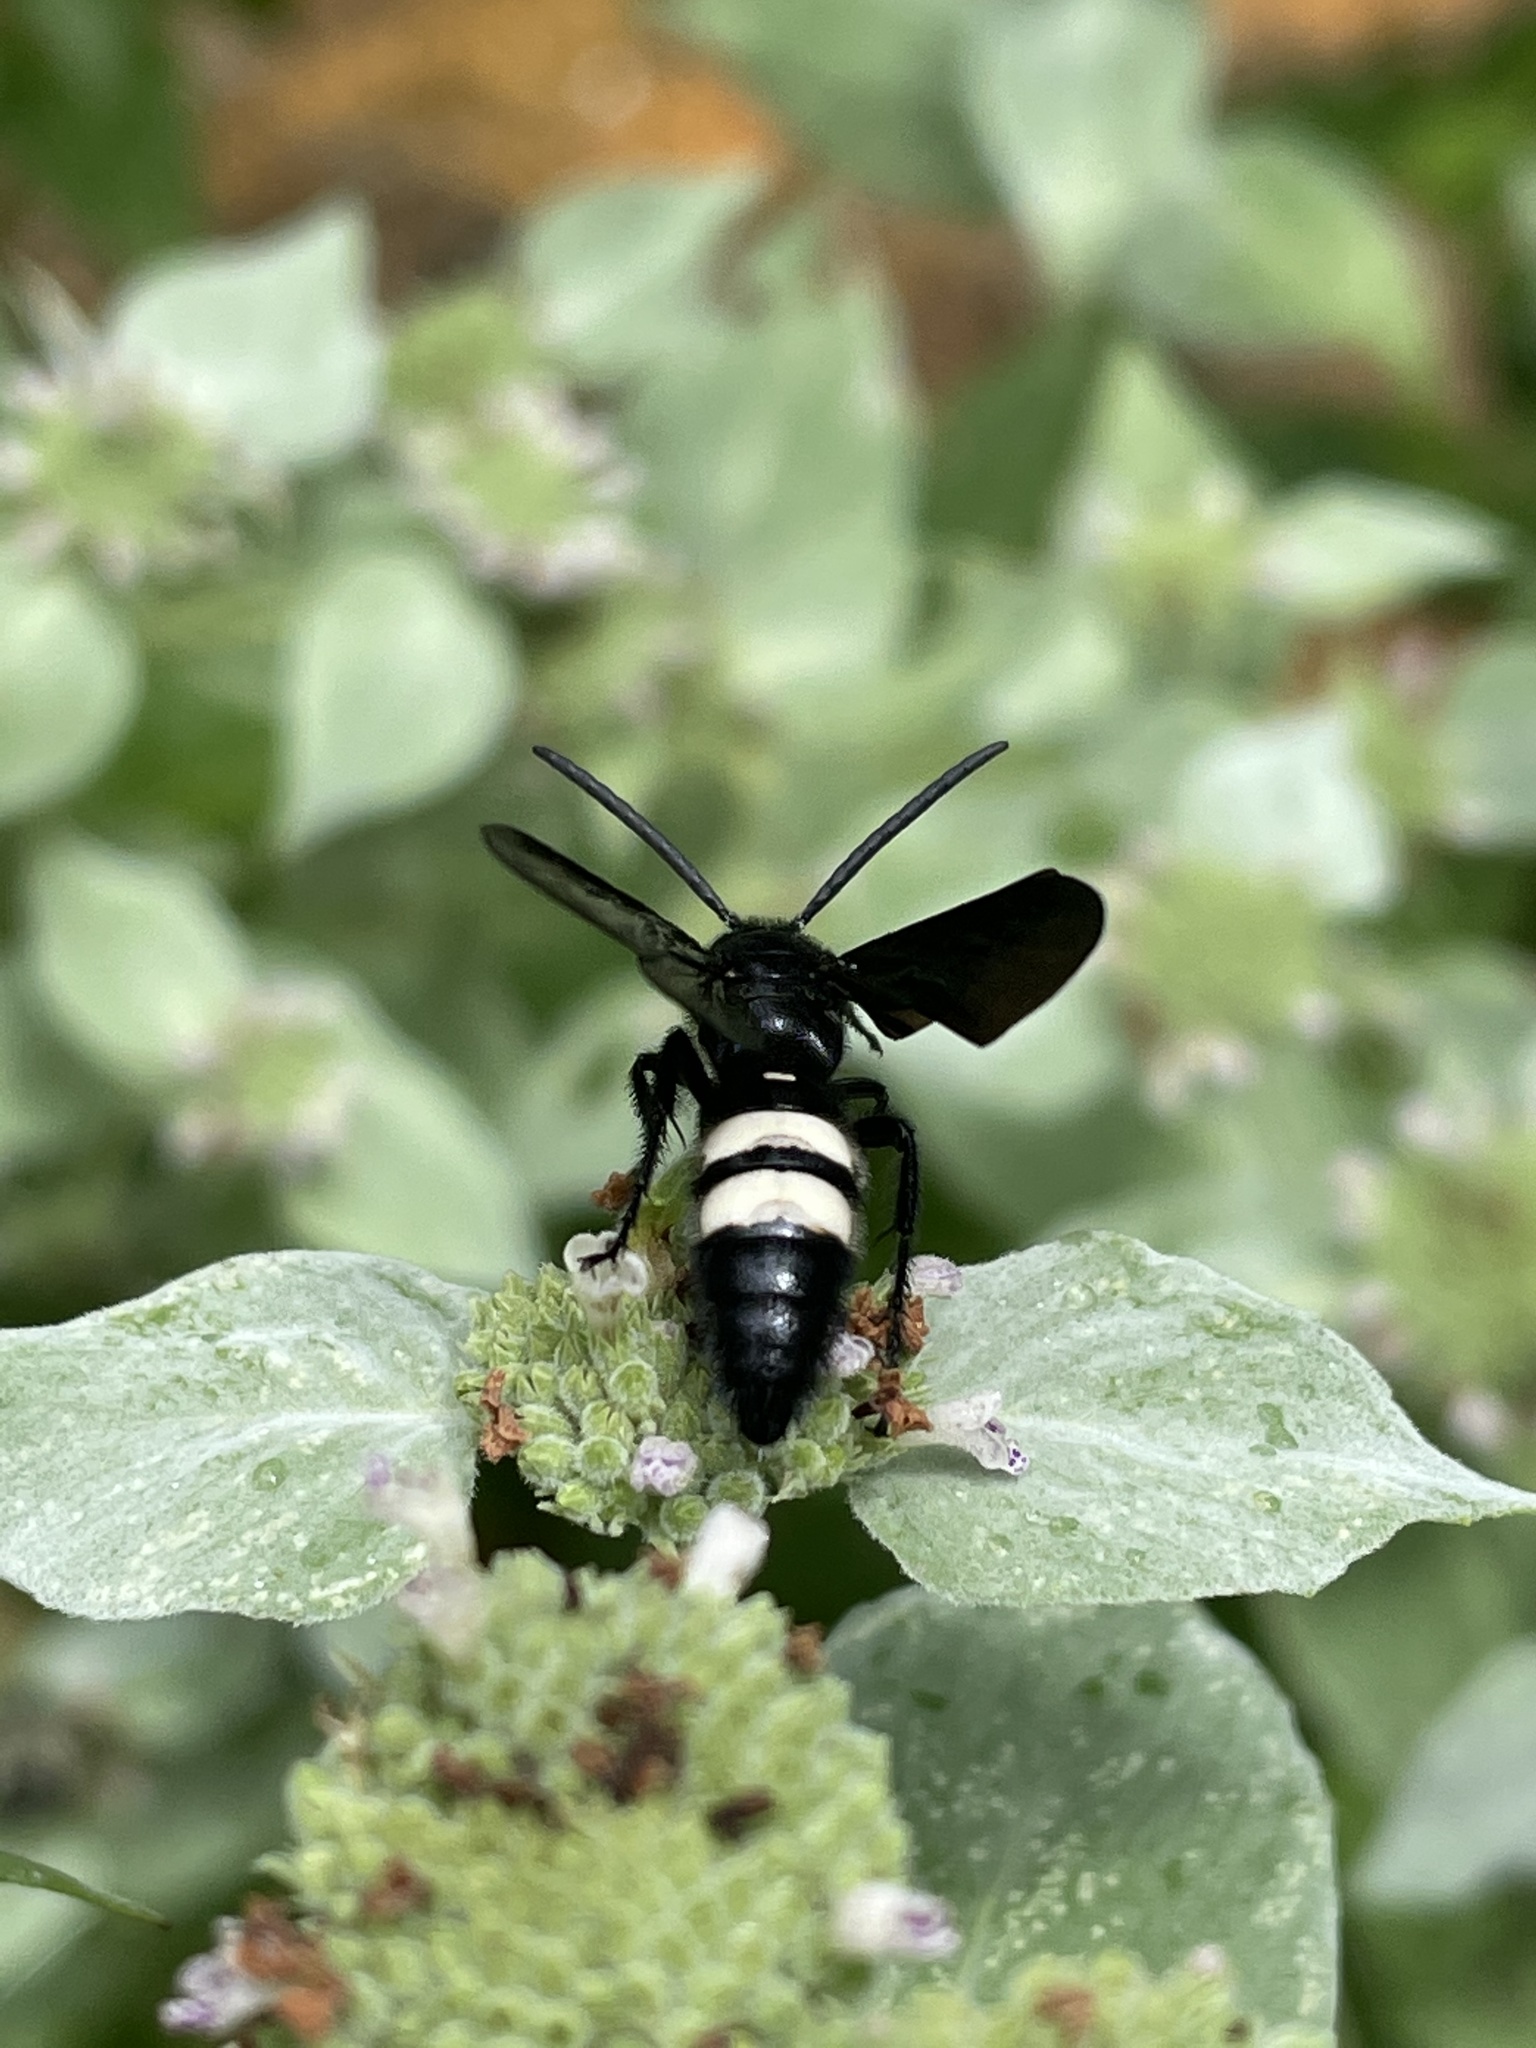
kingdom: Animalia
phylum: Arthropoda
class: Insecta
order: Hymenoptera
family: Scoliidae
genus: Scolia
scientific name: Scolia bicincta
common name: Double-banded scoliid wasp
